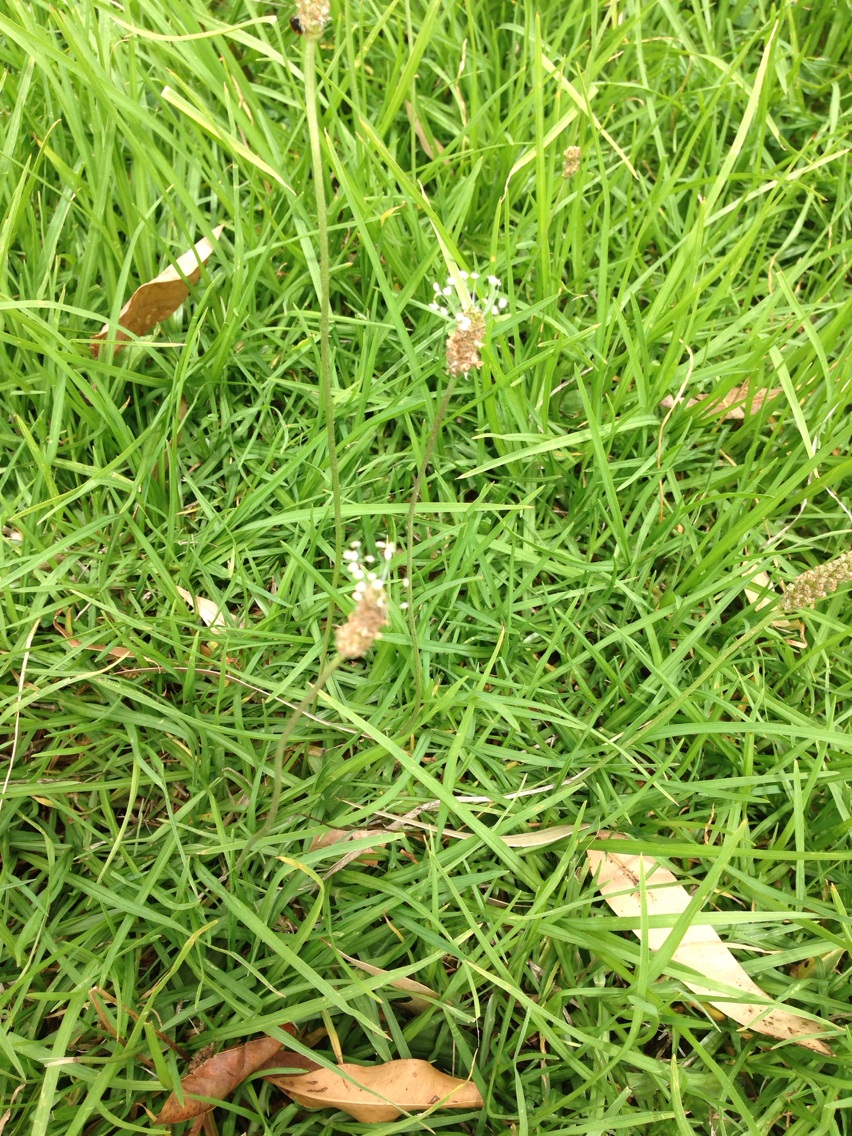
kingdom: Plantae
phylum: Tracheophyta
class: Magnoliopsida
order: Lamiales
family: Plantaginaceae
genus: Plantago
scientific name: Plantago lanceolata
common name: Ribwort plantain
